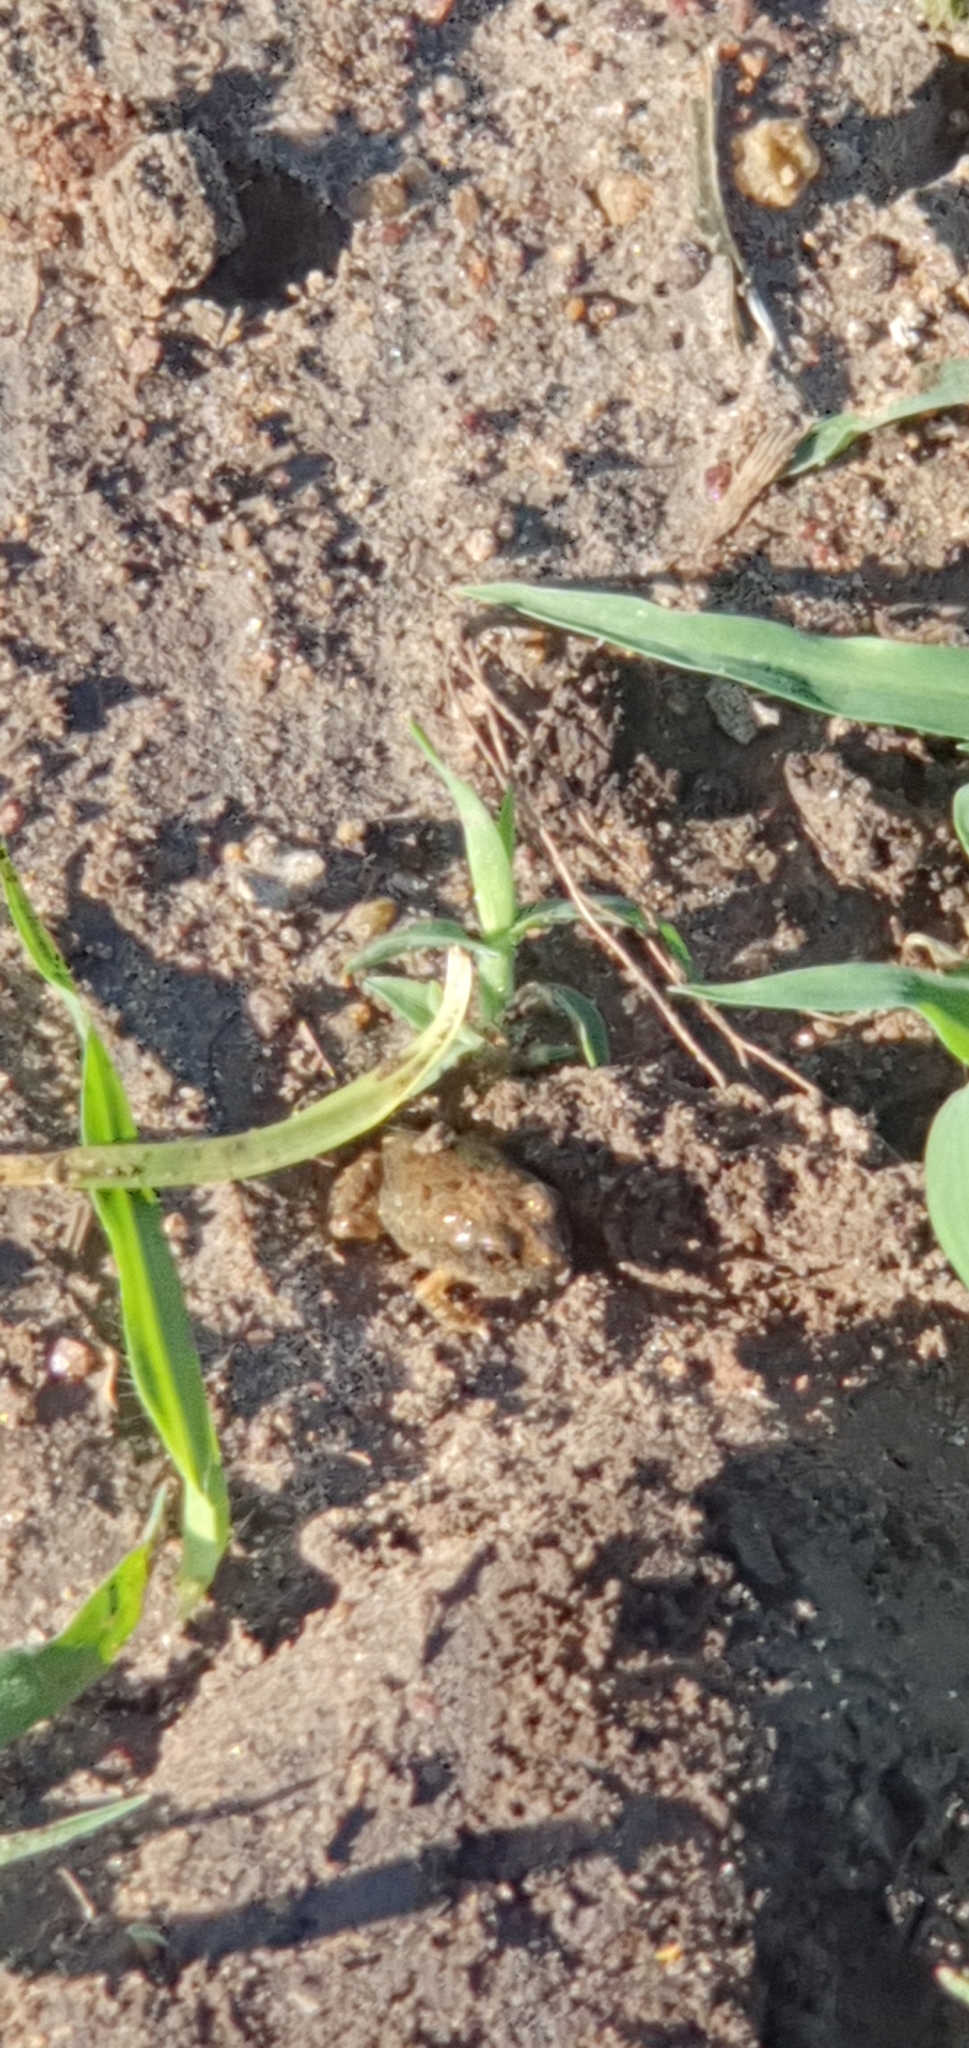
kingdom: Animalia
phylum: Chordata
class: Amphibia
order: Anura
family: Limnodynastidae
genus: Platyplectrum
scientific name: Platyplectrum ornatum
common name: Ornate burrowing frog
